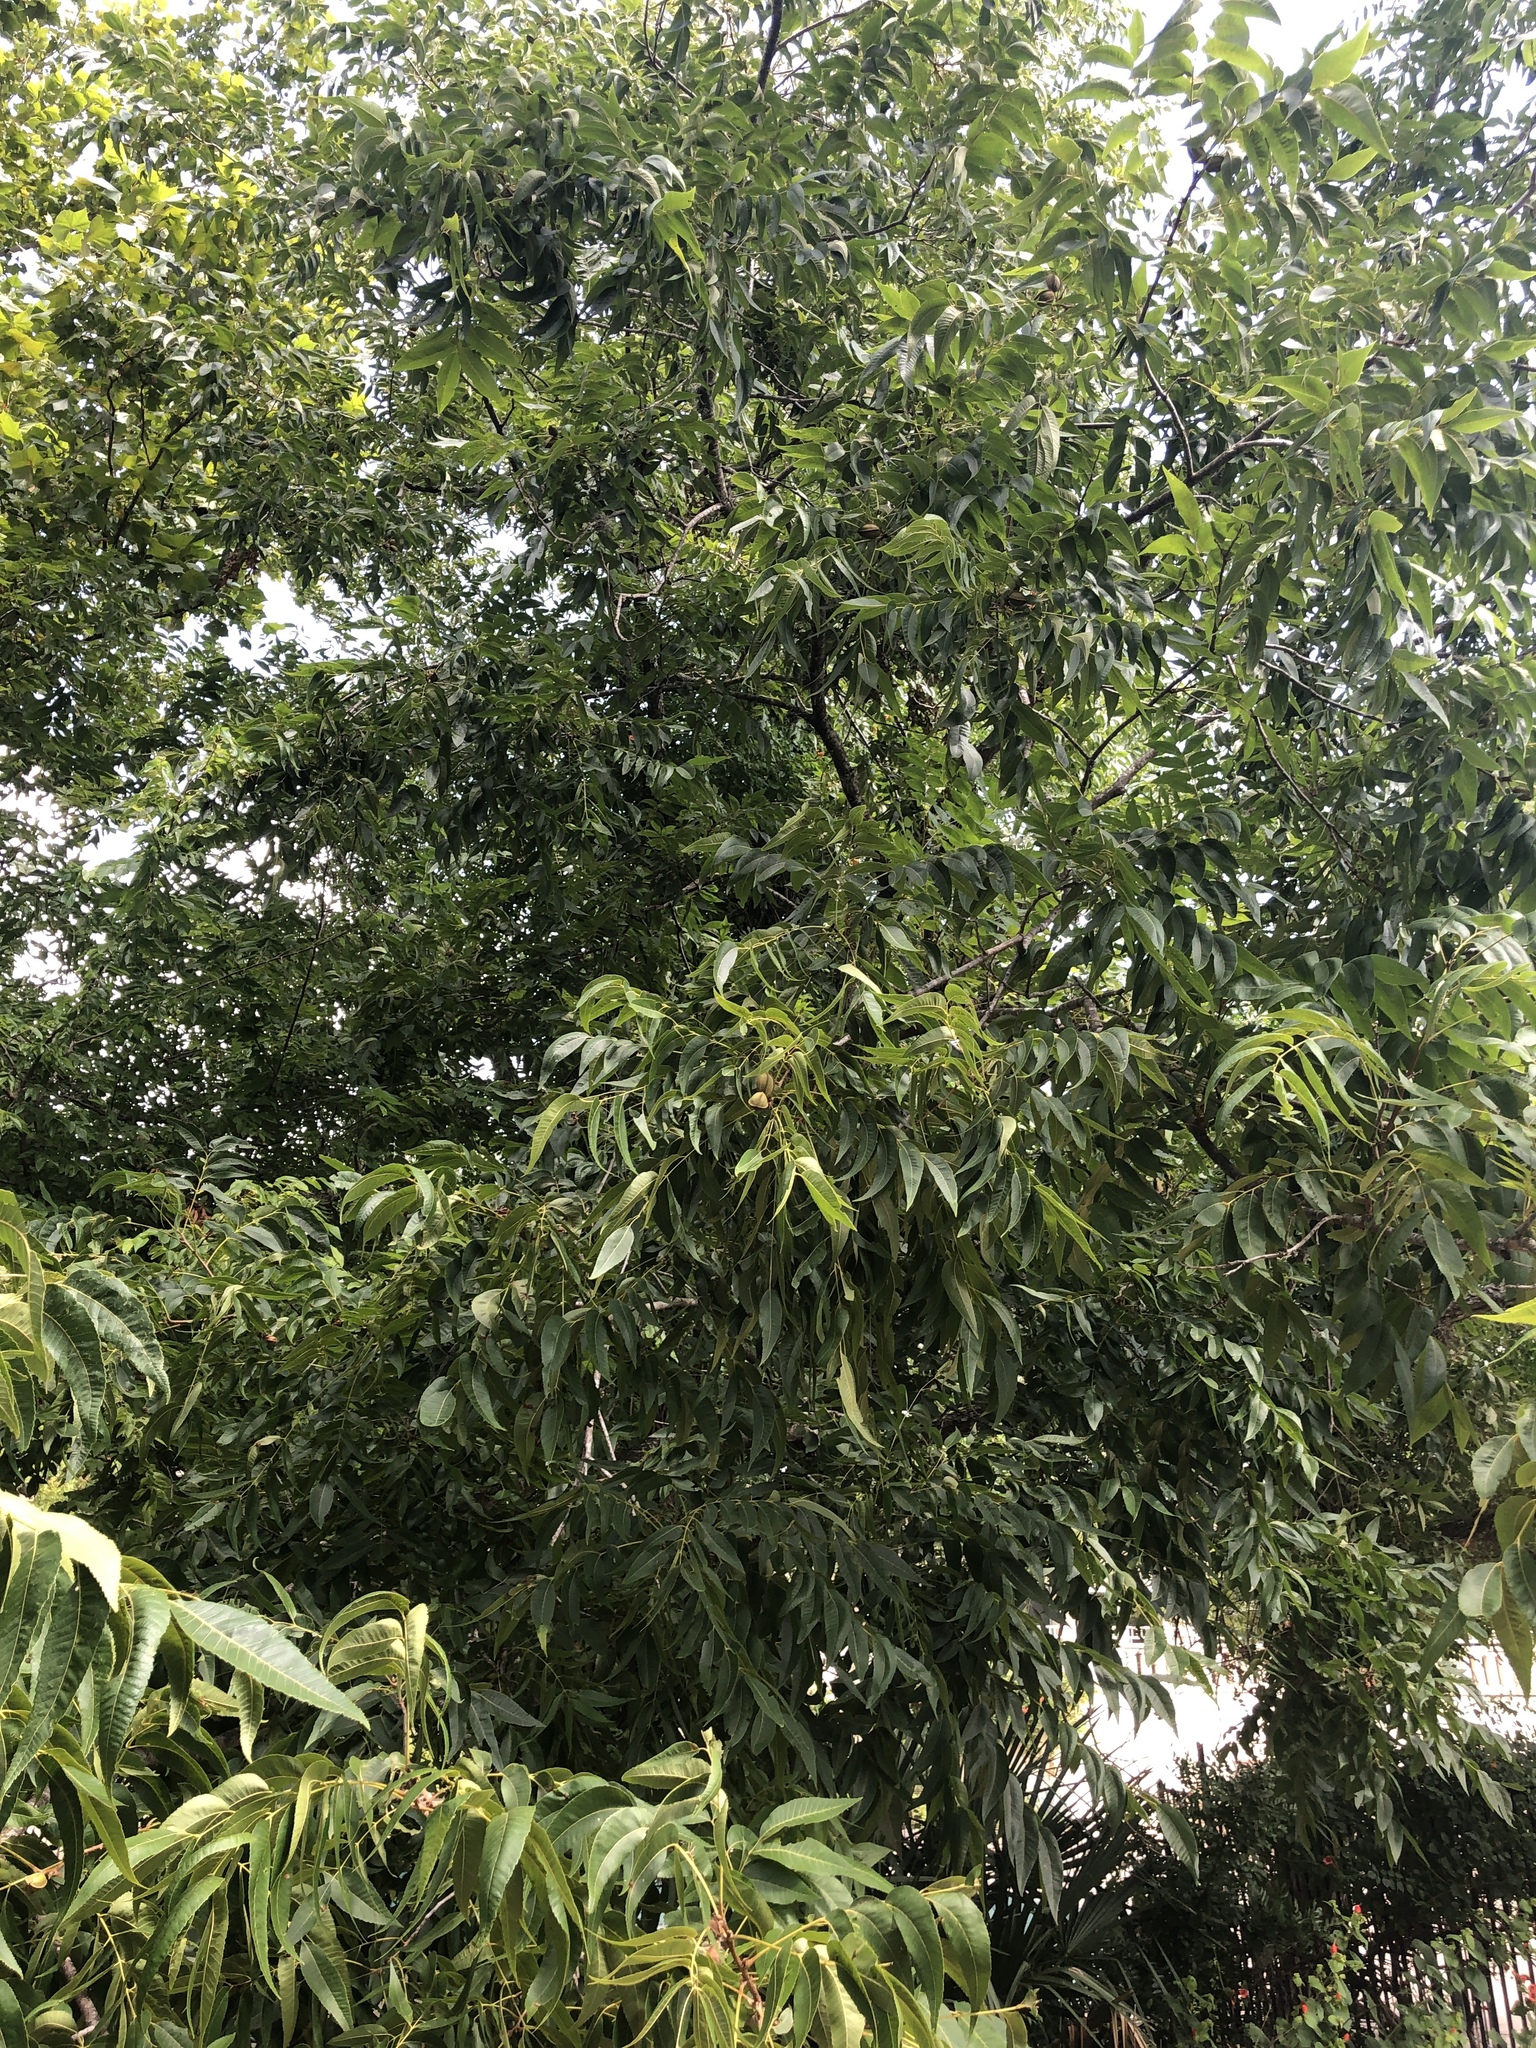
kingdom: Plantae
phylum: Tracheophyta
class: Magnoliopsida
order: Fagales
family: Juglandaceae
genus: Carya
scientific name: Carya illinoinensis
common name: Pecan
